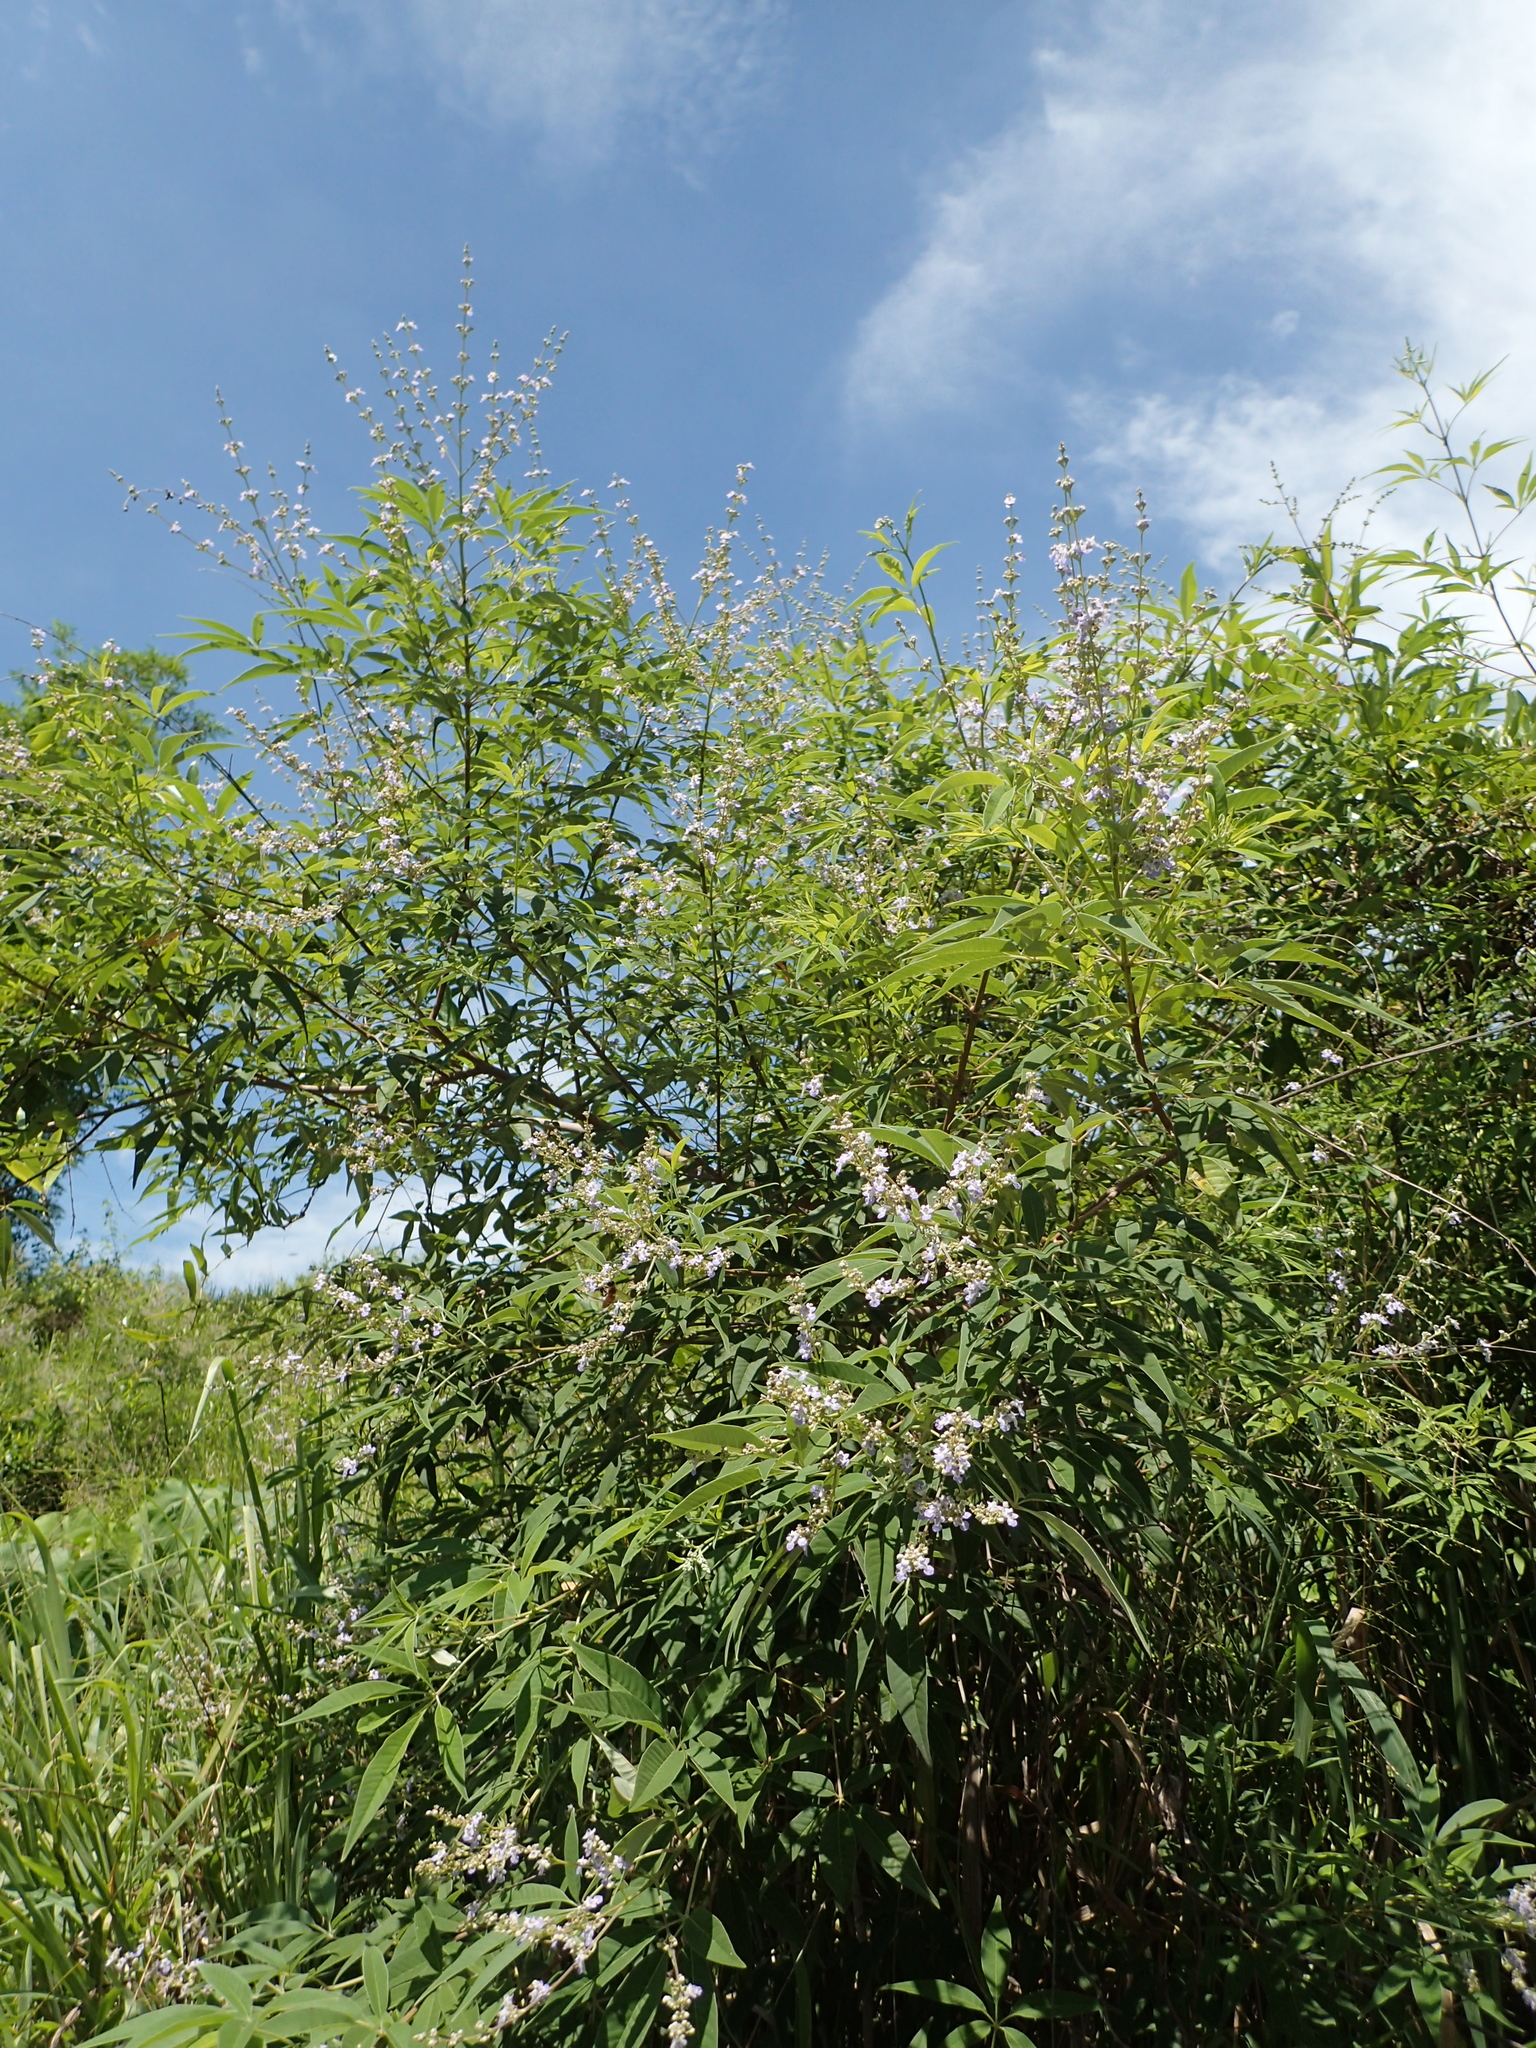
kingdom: Plantae
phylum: Tracheophyta
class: Magnoliopsida
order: Lamiales
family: Lamiaceae
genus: Vitex
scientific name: Vitex negundo
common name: Chinese chastetree
